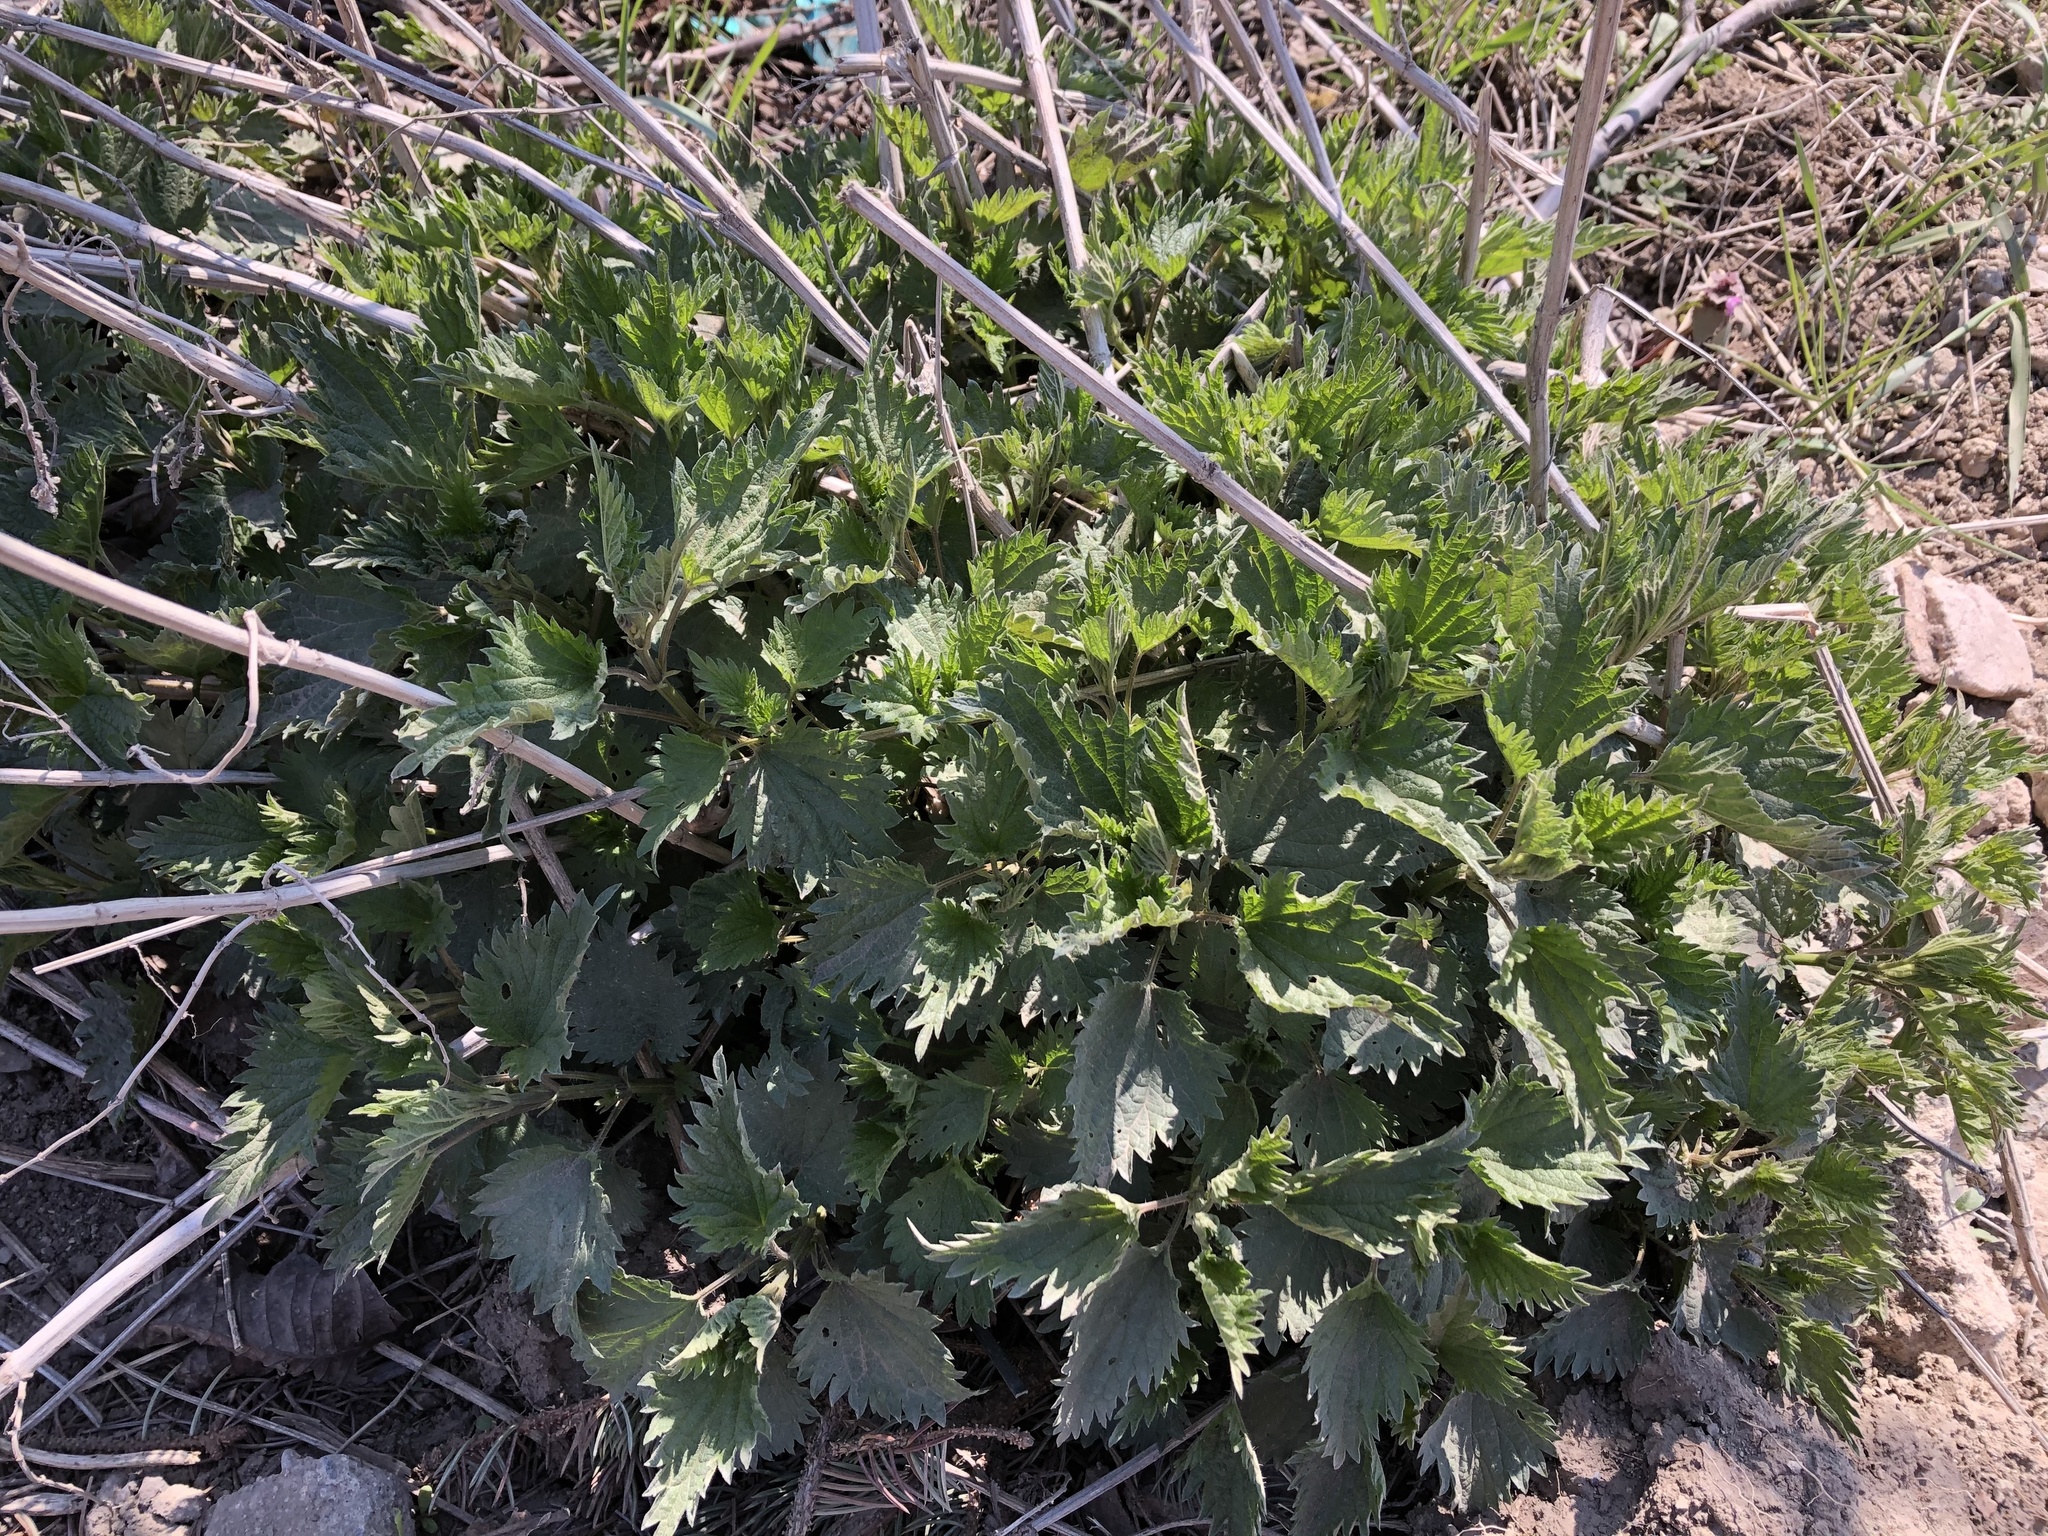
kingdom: Plantae
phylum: Tracheophyta
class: Magnoliopsida
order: Rosales
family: Urticaceae
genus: Urtica
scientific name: Urtica dioica
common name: Common nettle
